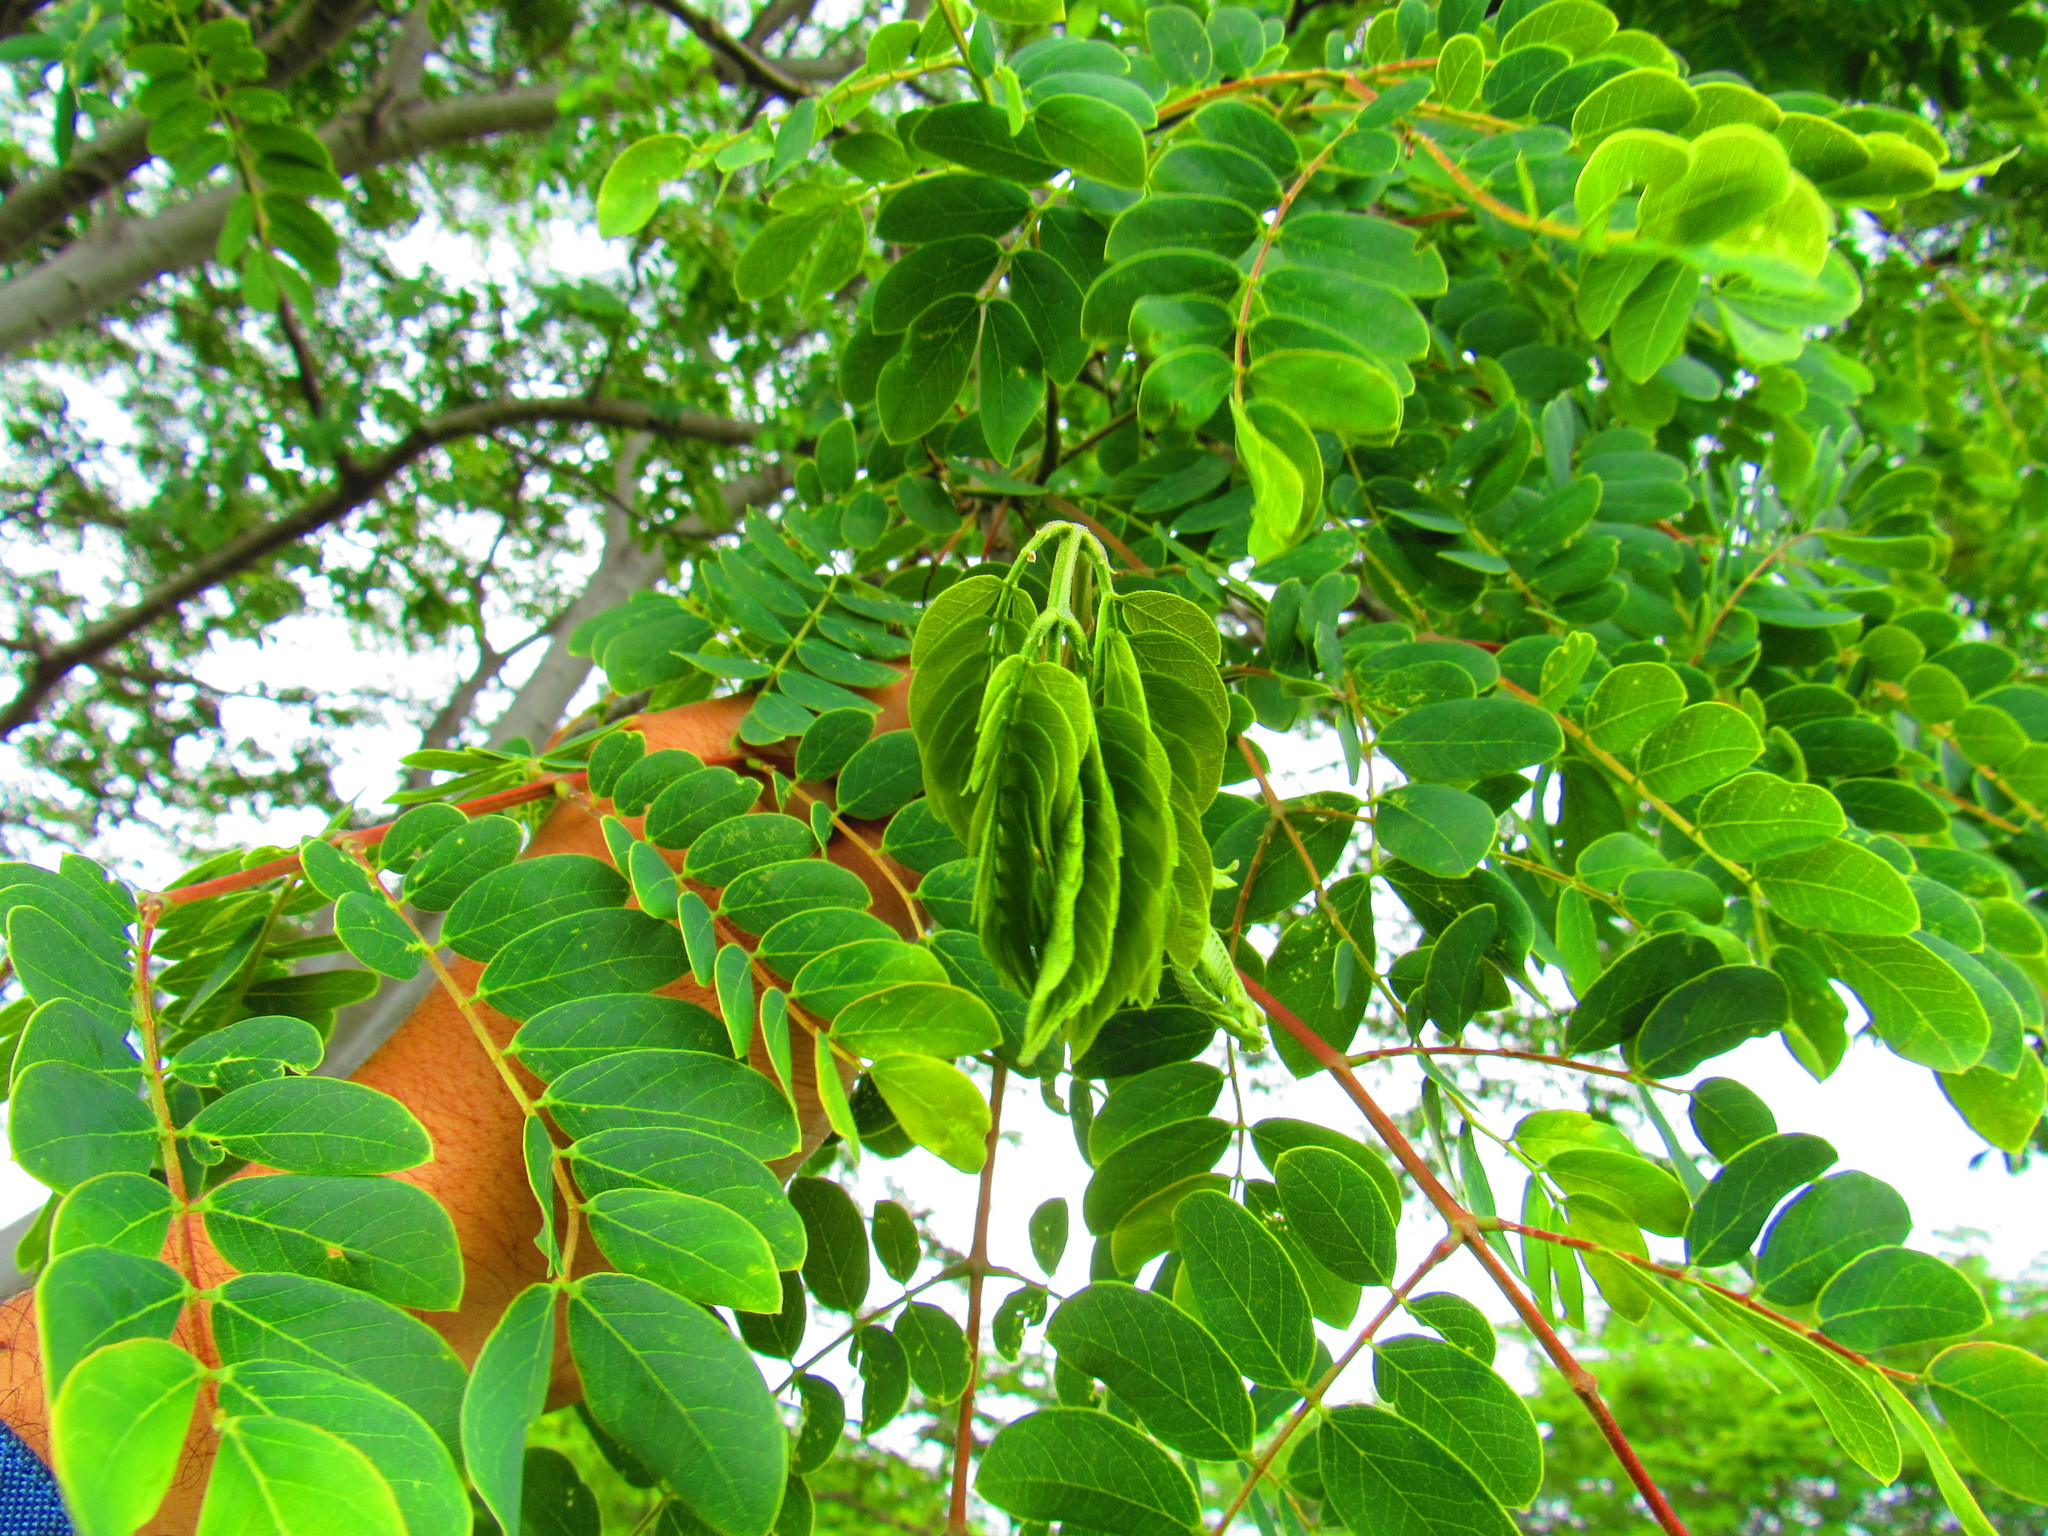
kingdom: Plantae
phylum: Tracheophyta
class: Magnoliopsida
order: Fabales
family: Fabaceae
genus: Albizia
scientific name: Albizia occidentalis
